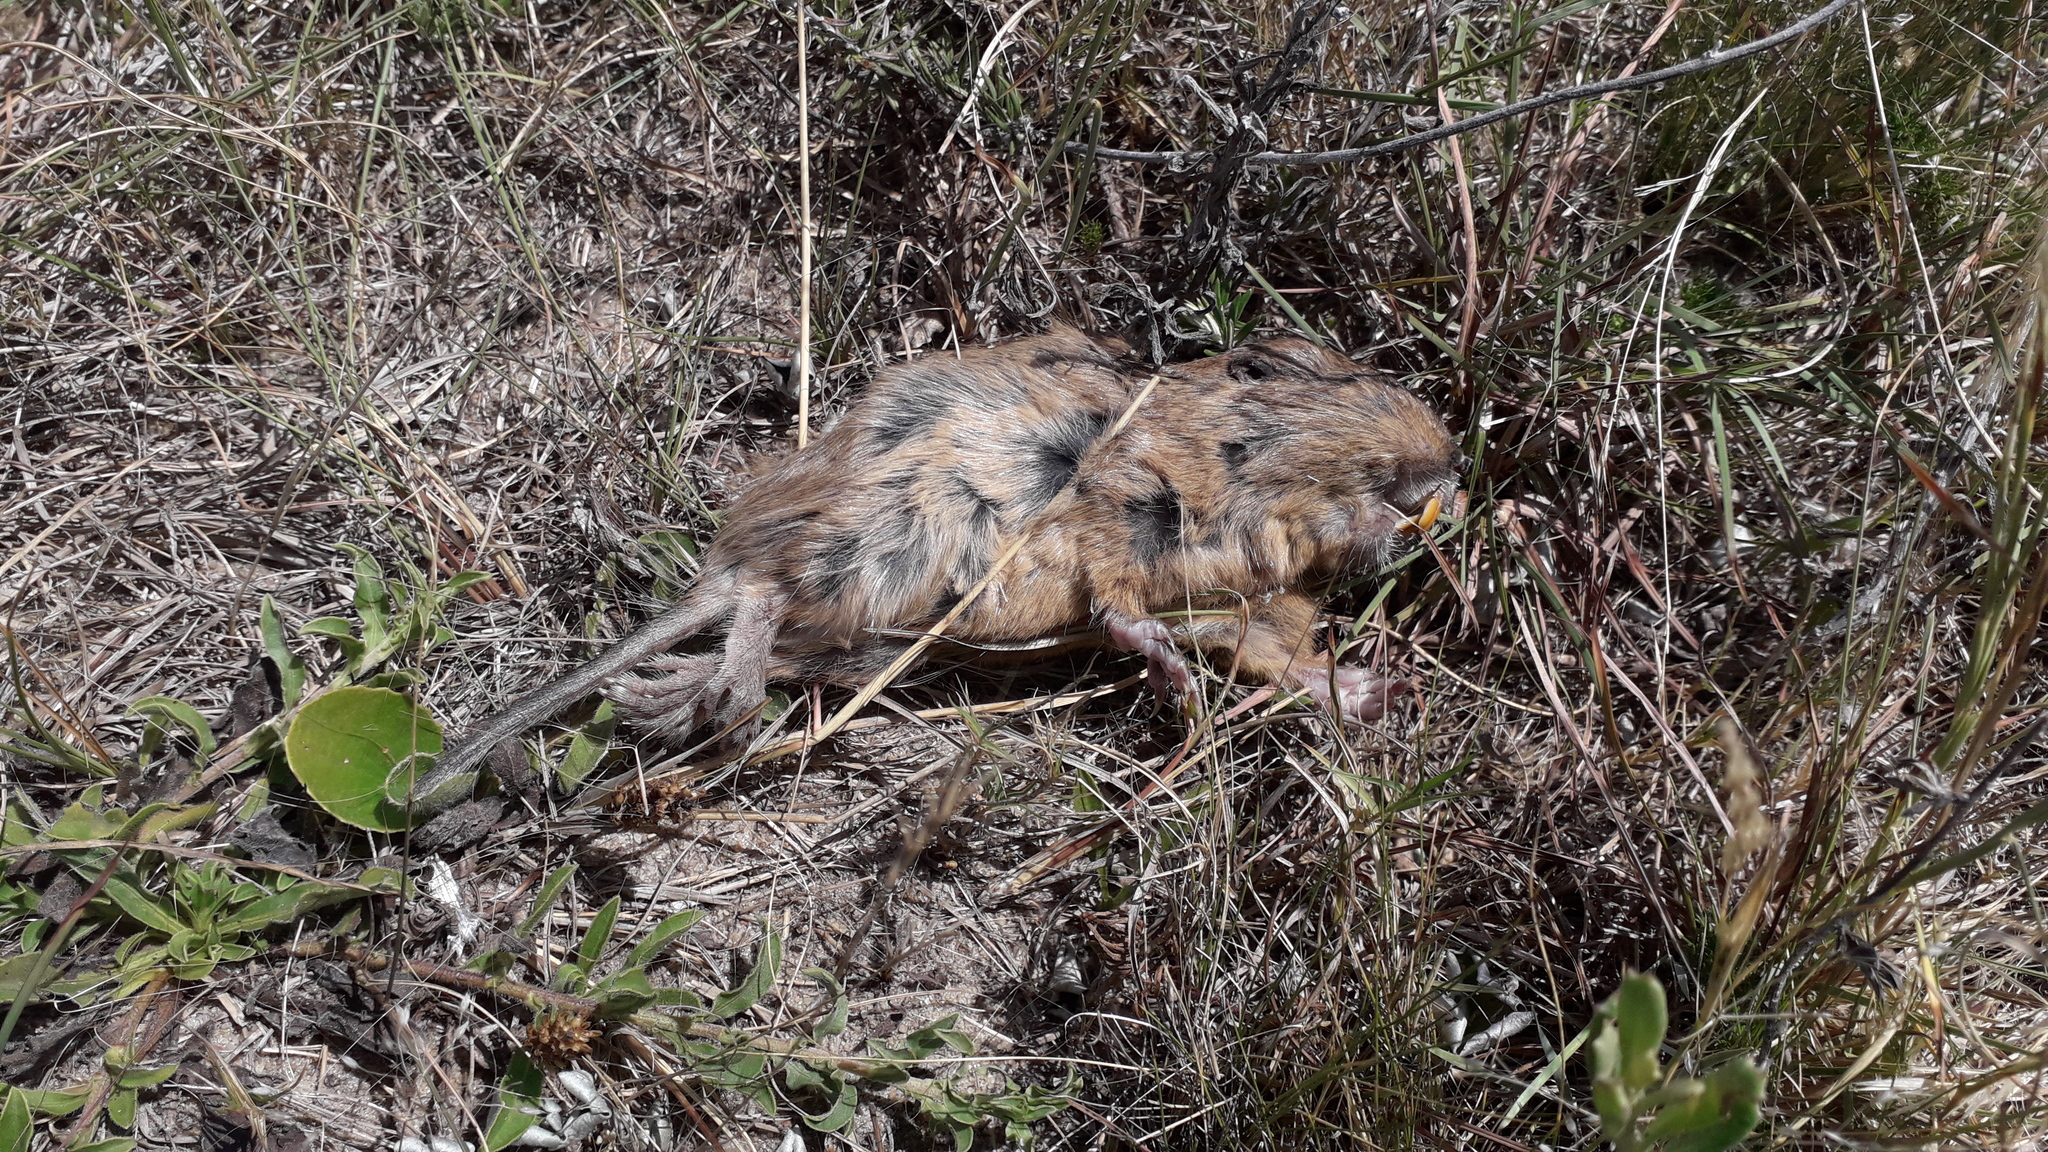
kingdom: Animalia
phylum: Chordata
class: Mammalia
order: Rodentia
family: Ctenomyidae
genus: Ctenomys
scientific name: Ctenomys pearsoni
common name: Pearson's tuco-tuco
